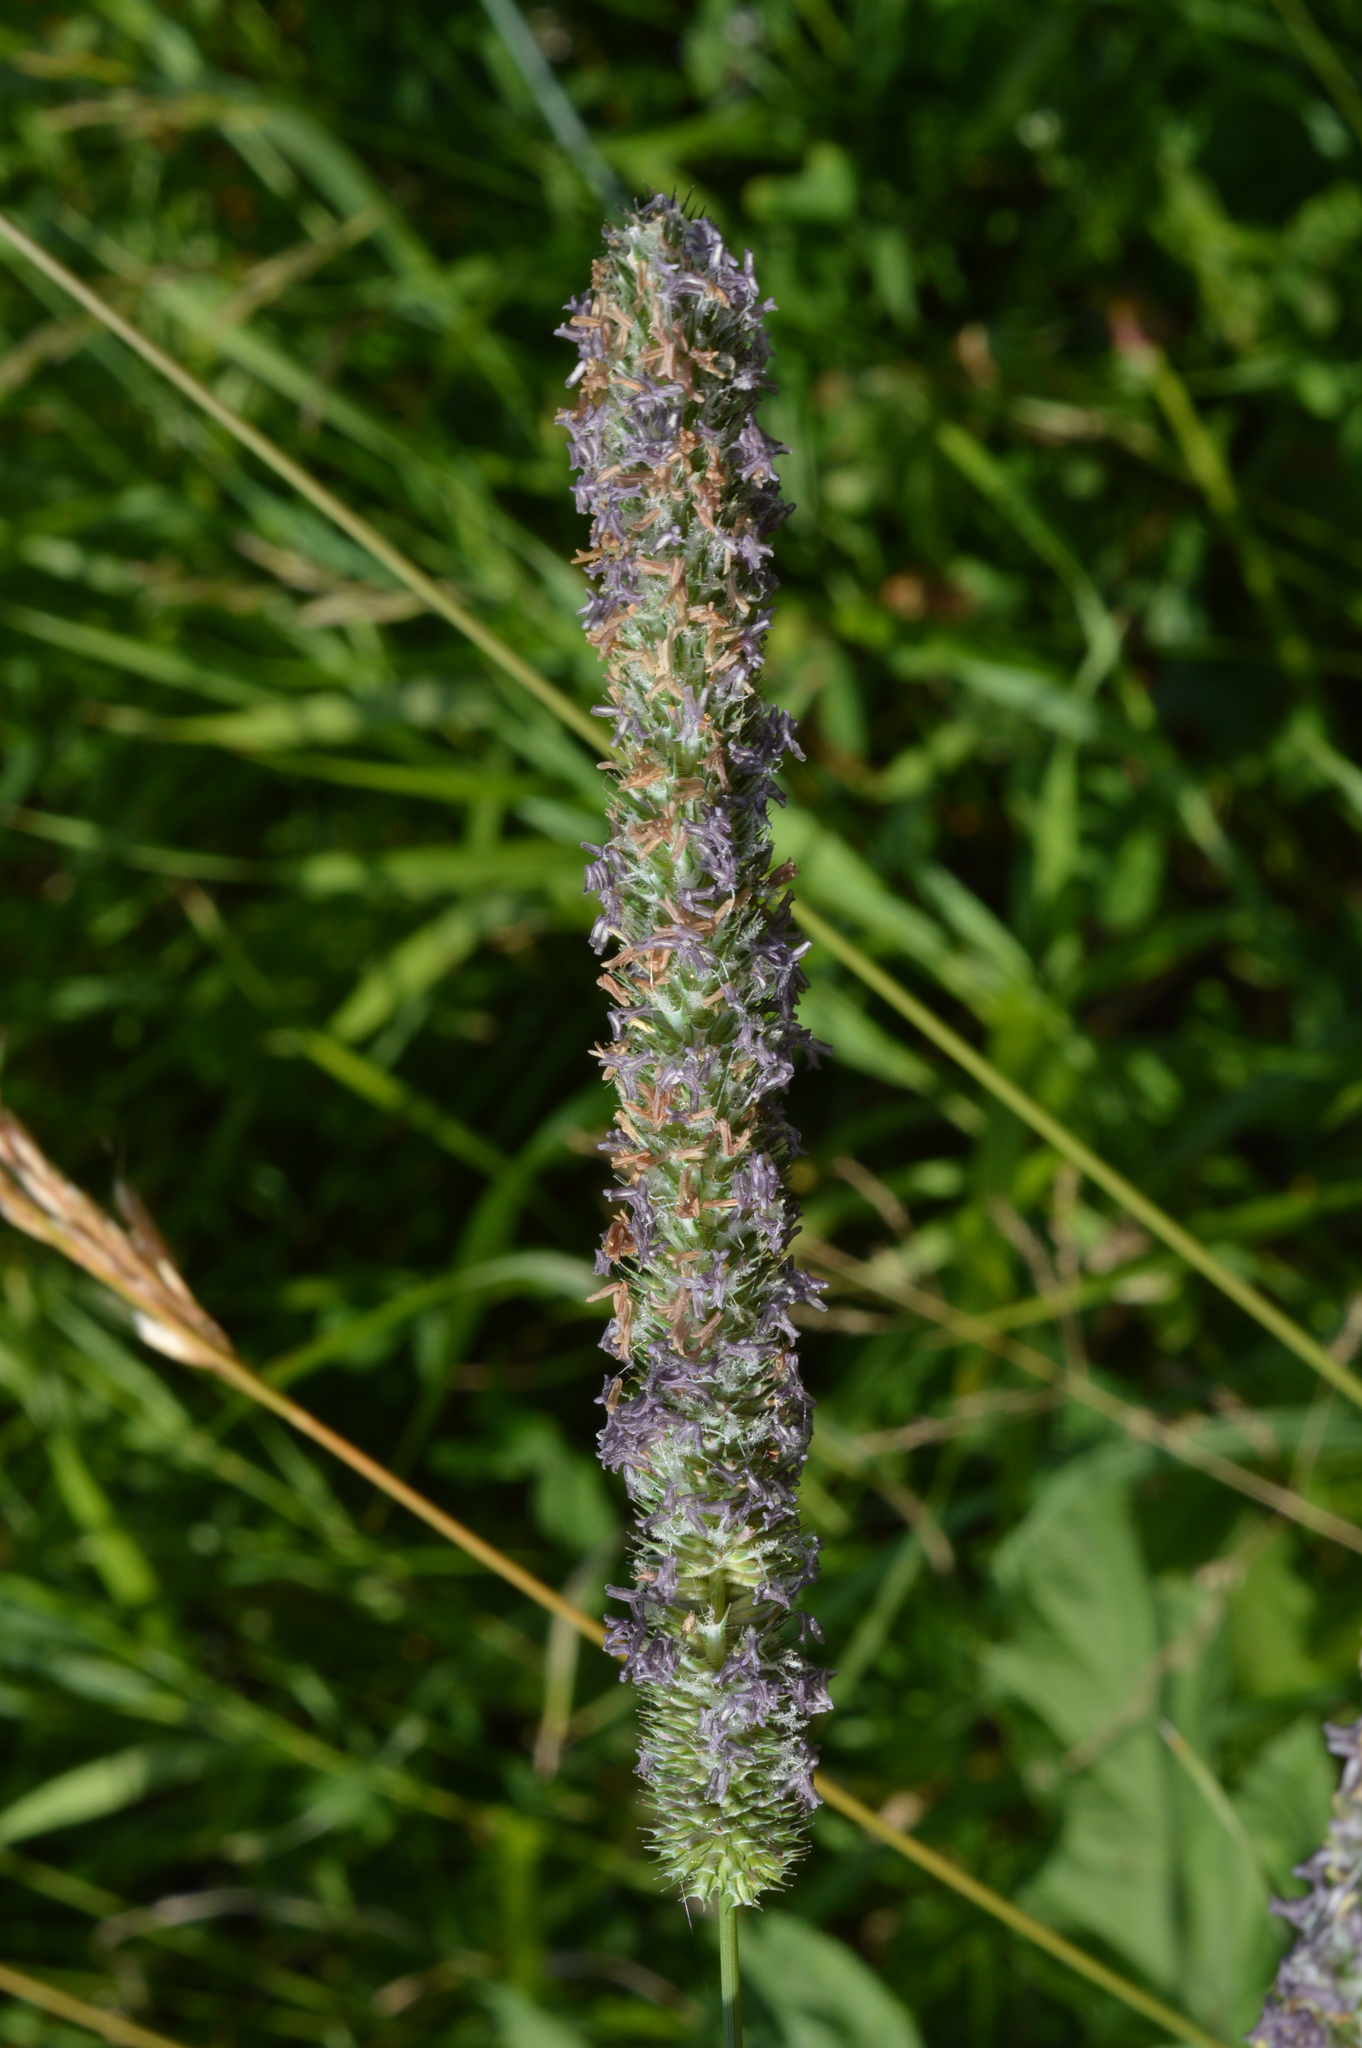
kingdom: Plantae
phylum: Tracheophyta
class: Liliopsida
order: Poales
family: Poaceae
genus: Phleum
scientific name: Phleum pratense
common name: Timothy grass
